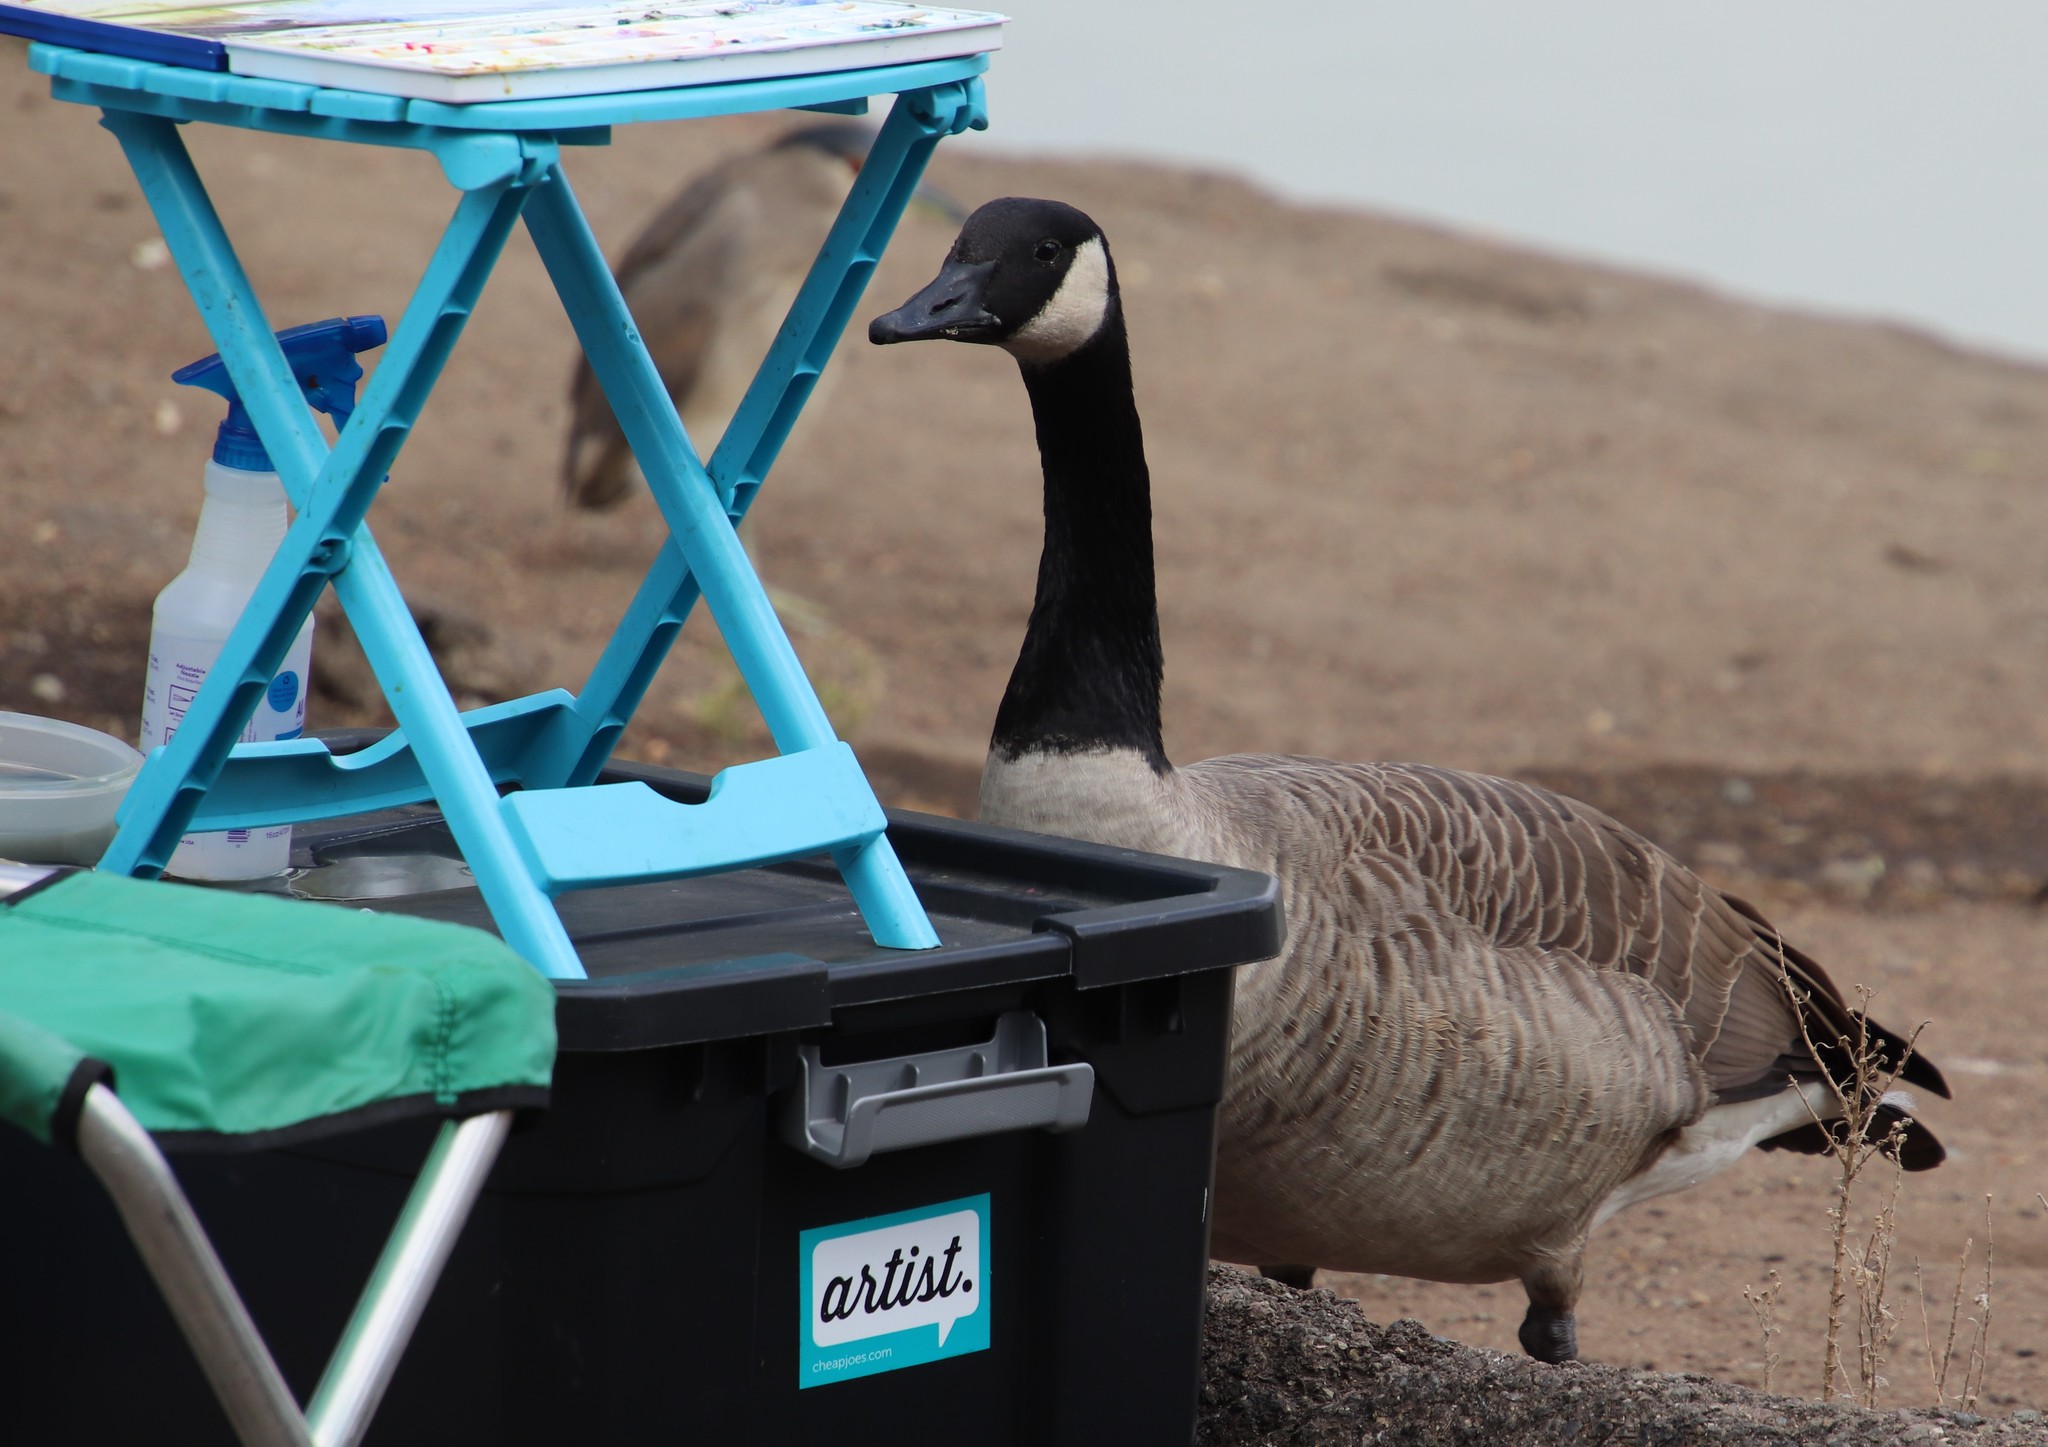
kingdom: Animalia
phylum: Chordata
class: Aves
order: Anseriformes
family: Anatidae
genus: Branta
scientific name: Branta canadensis
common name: Canada goose
